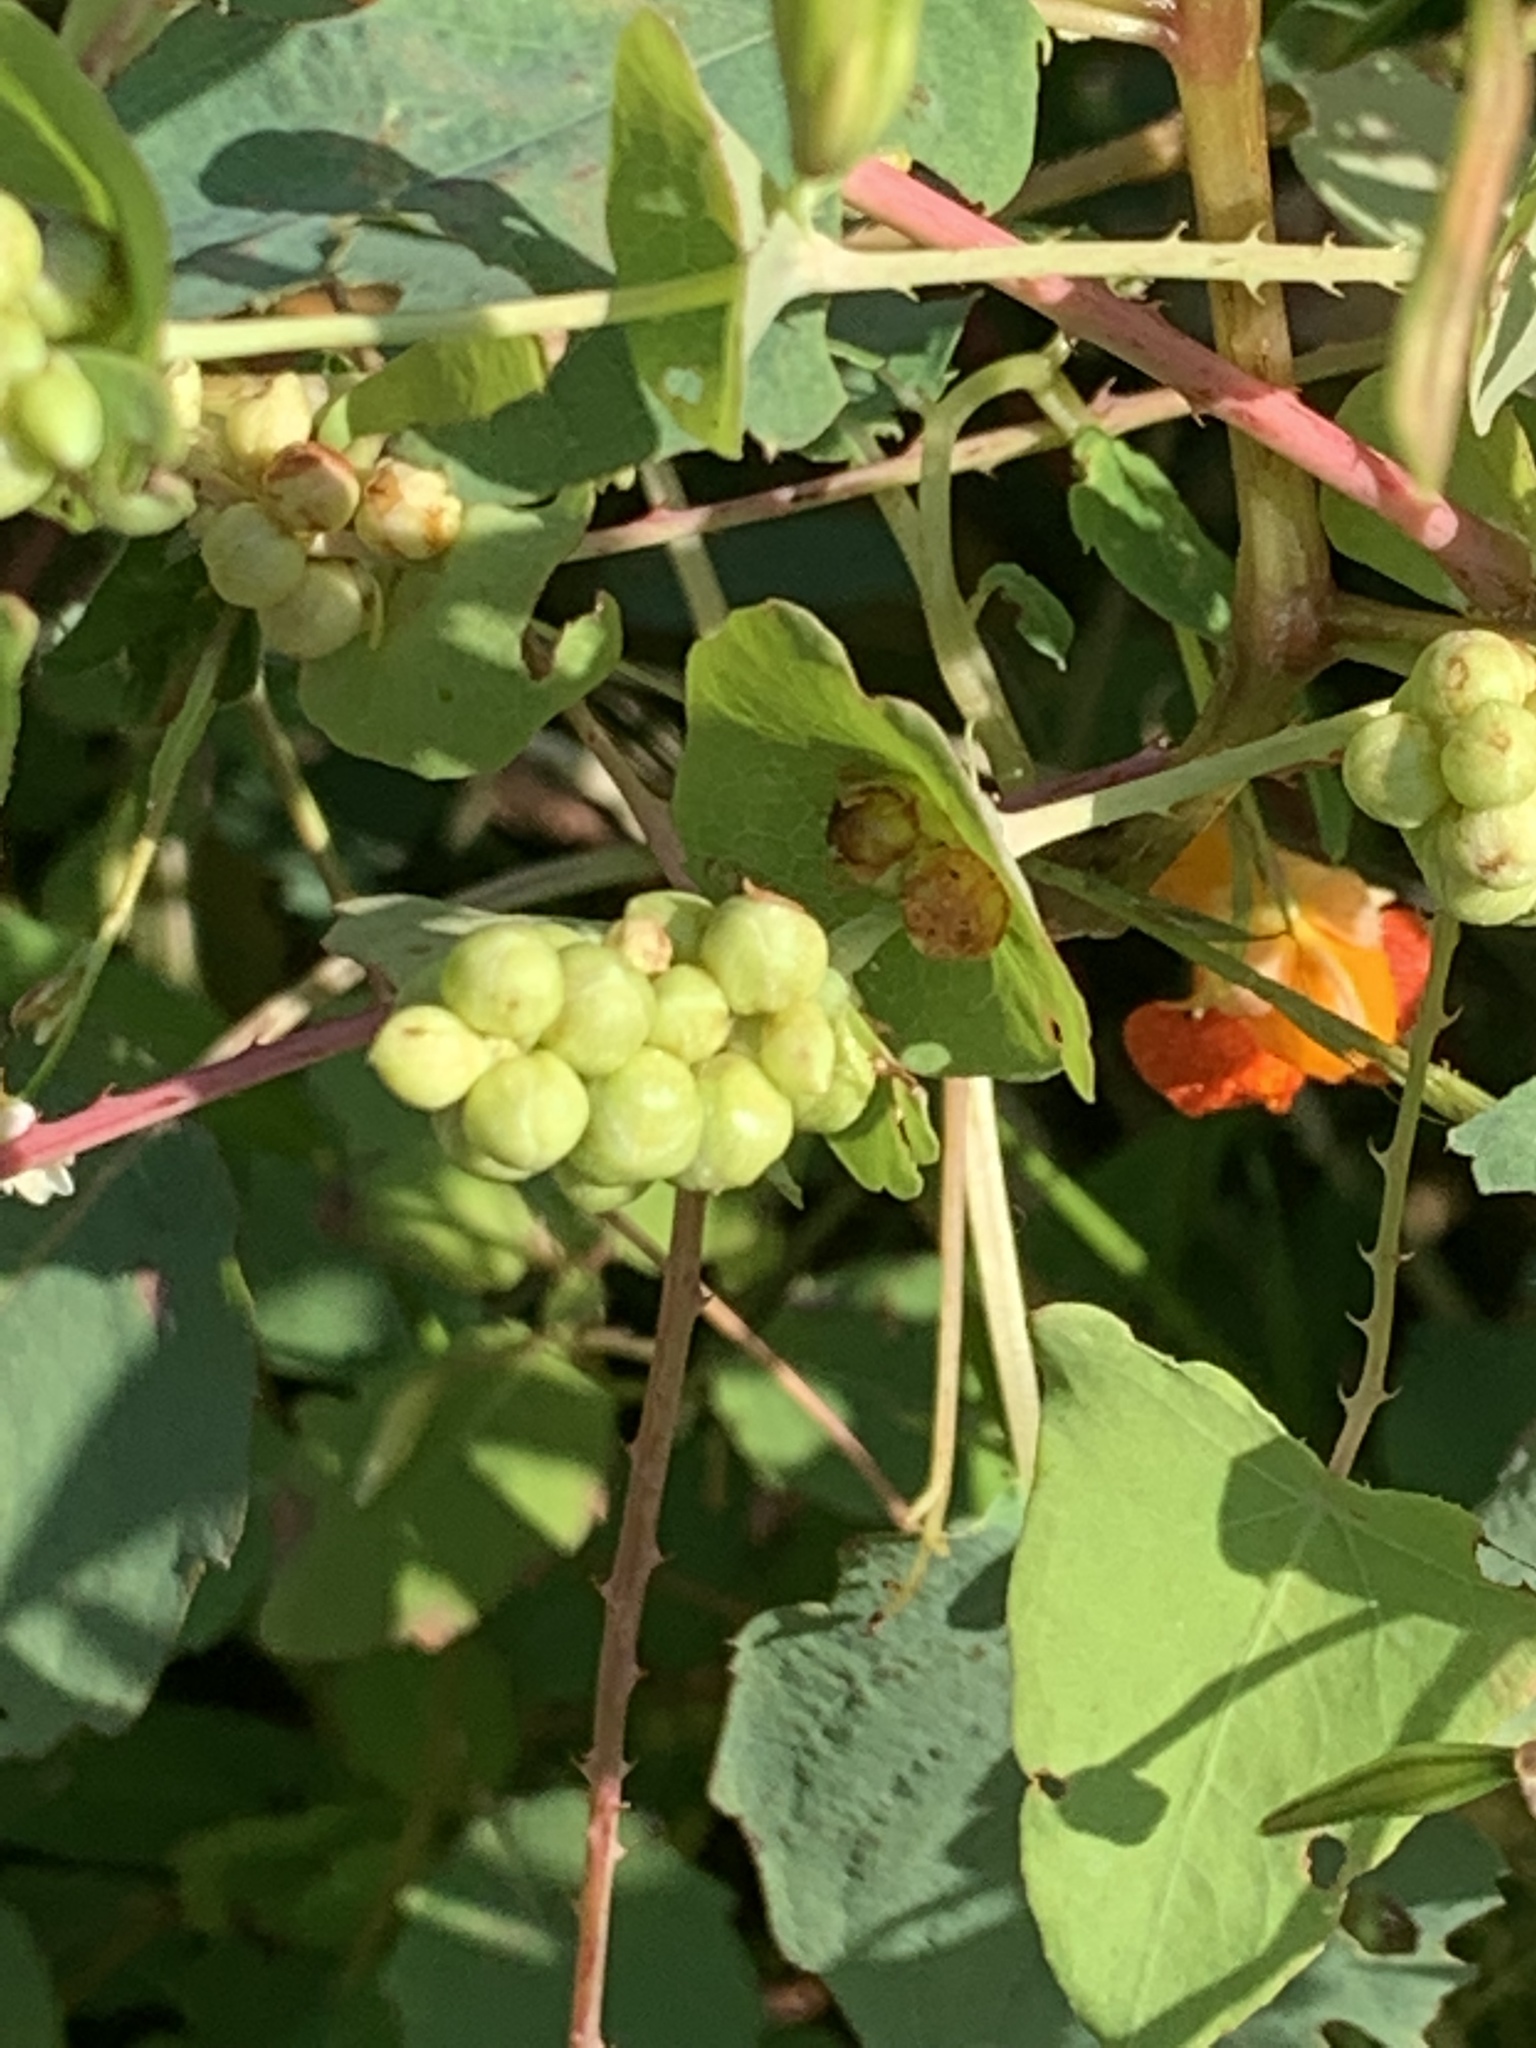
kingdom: Plantae
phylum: Tracheophyta
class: Magnoliopsida
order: Caryophyllales
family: Polygonaceae
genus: Persicaria
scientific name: Persicaria perfoliata
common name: Asiatic tearthumb
